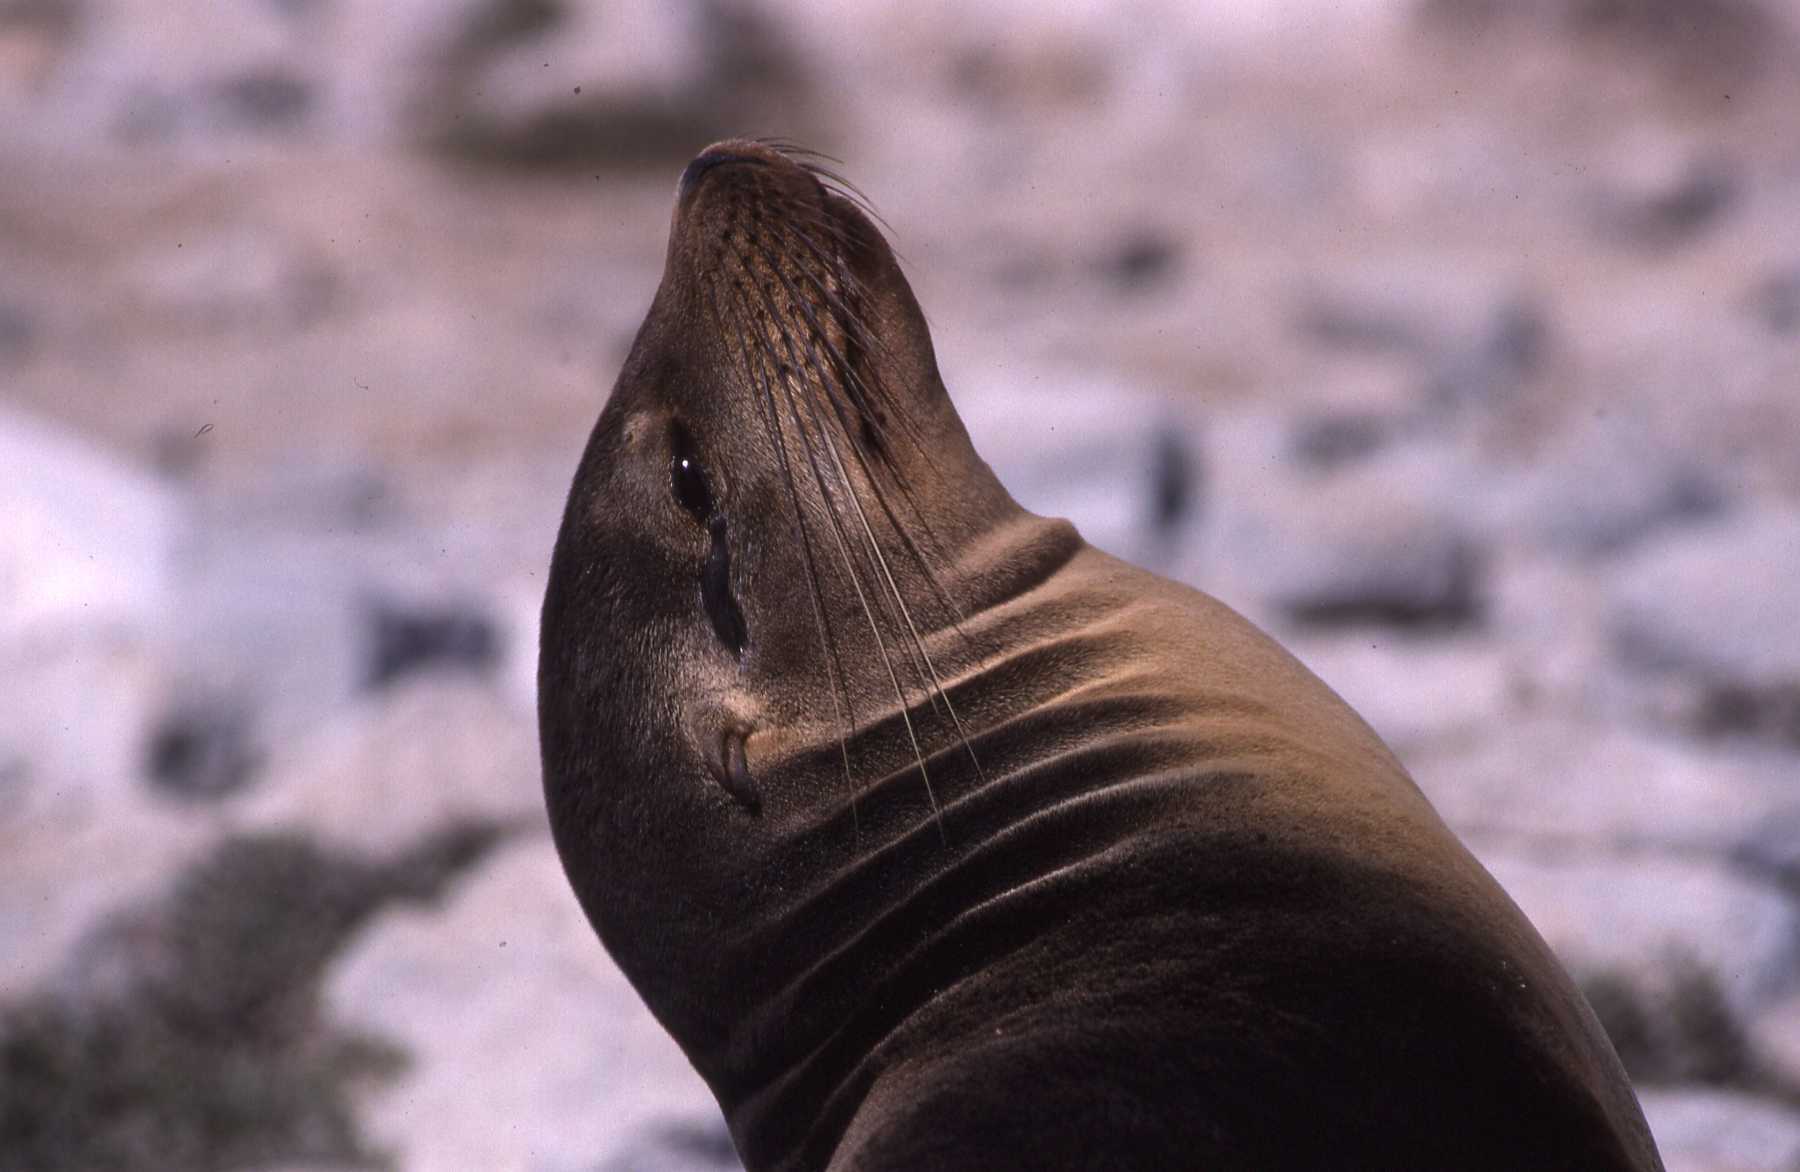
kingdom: Animalia
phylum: Chordata
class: Mammalia
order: Carnivora
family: Otariidae
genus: Zalophus
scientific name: Zalophus wollebaeki
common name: Galapagos sea lion
